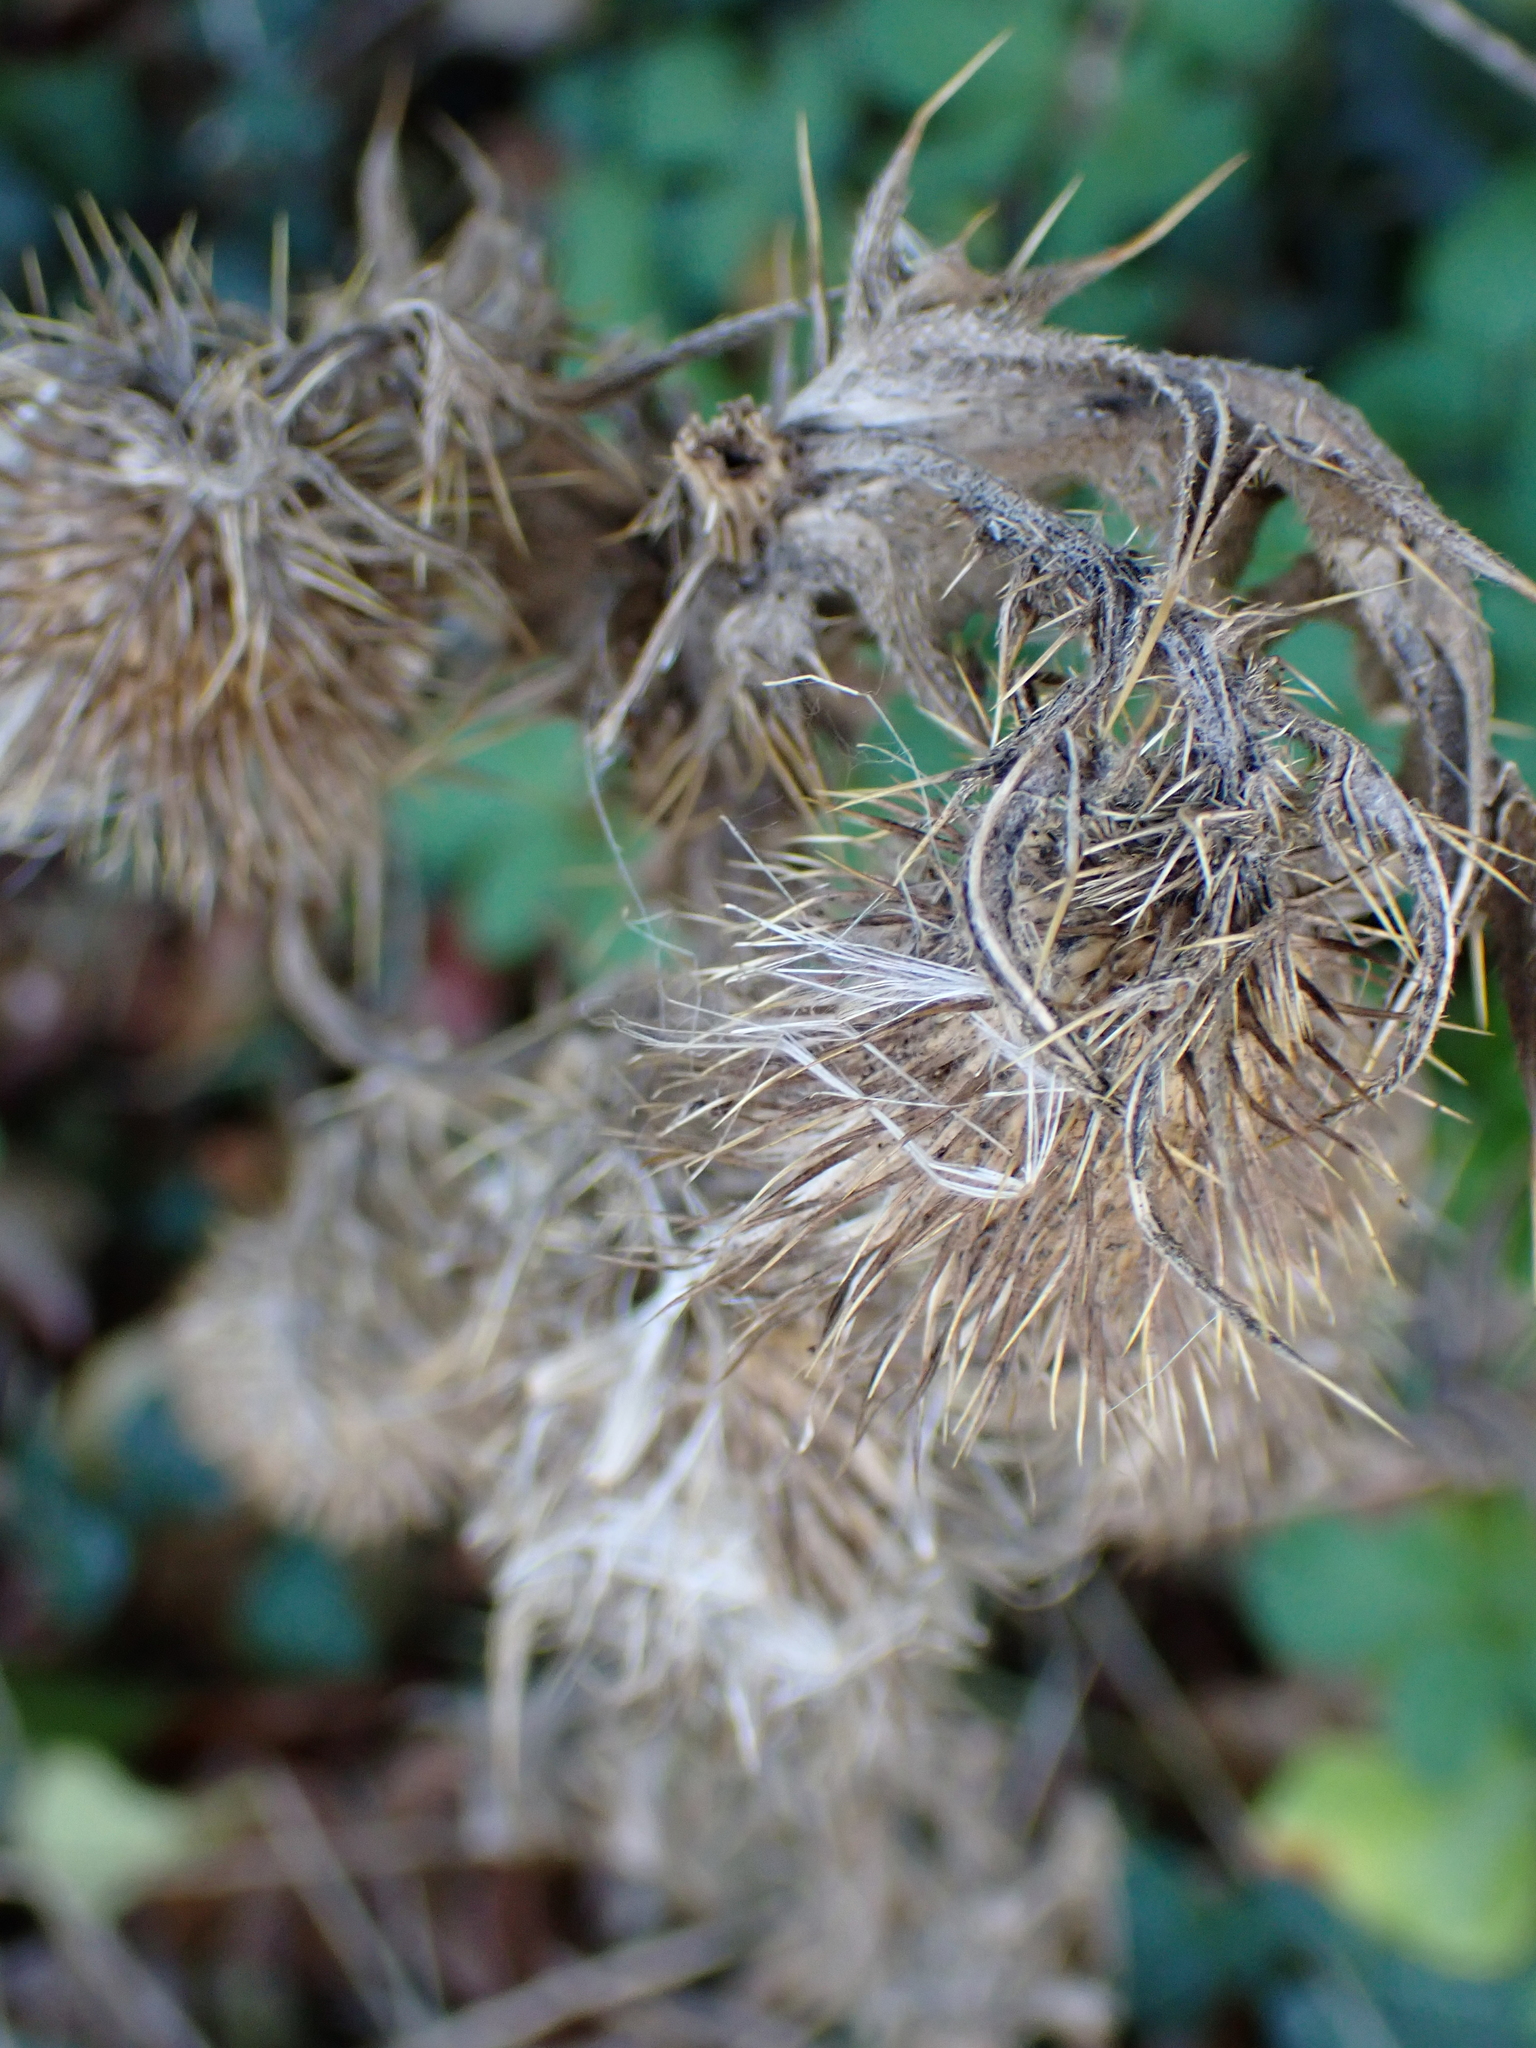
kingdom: Plantae
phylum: Tracheophyta
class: Magnoliopsida
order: Asterales
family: Asteraceae
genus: Cirsium
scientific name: Cirsium vulgare
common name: Bull thistle
